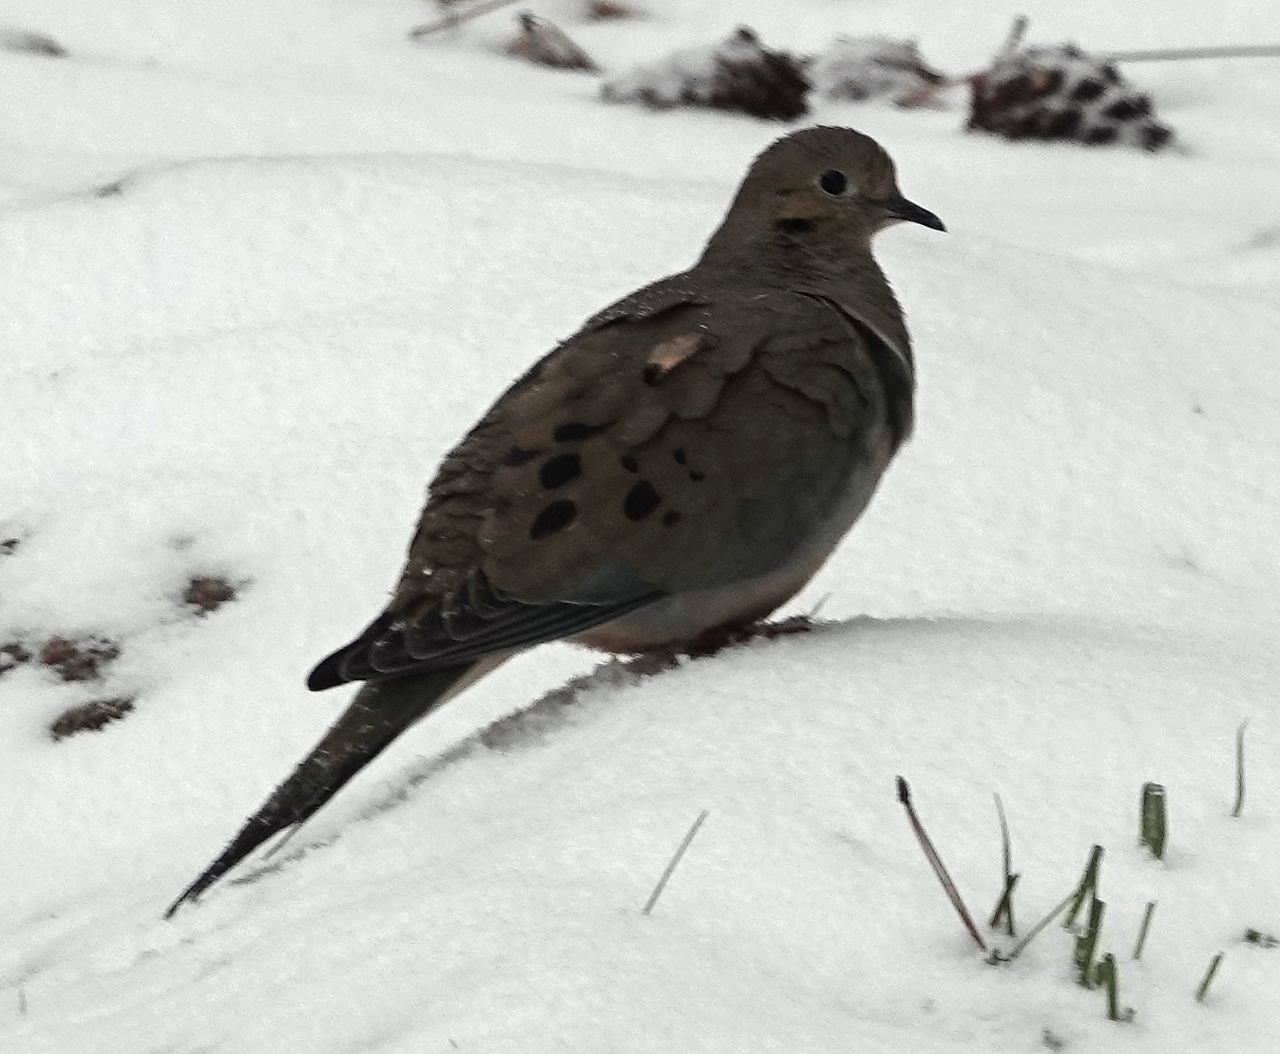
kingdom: Animalia
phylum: Chordata
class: Aves
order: Columbiformes
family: Columbidae
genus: Zenaida
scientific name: Zenaida macroura
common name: Mourning dove
